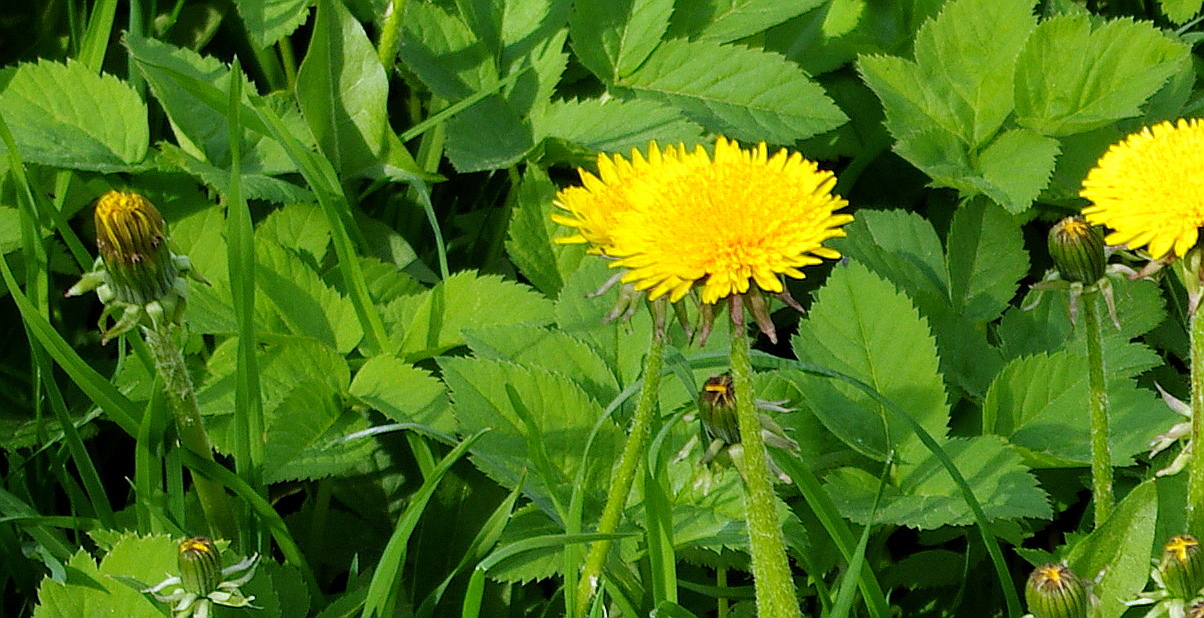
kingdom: Plantae
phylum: Tracheophyta
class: Magnoliopsida
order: Apiales
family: Apiaceae
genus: Aegopodium
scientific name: Aegopodium podagraria
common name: Ground-elder
